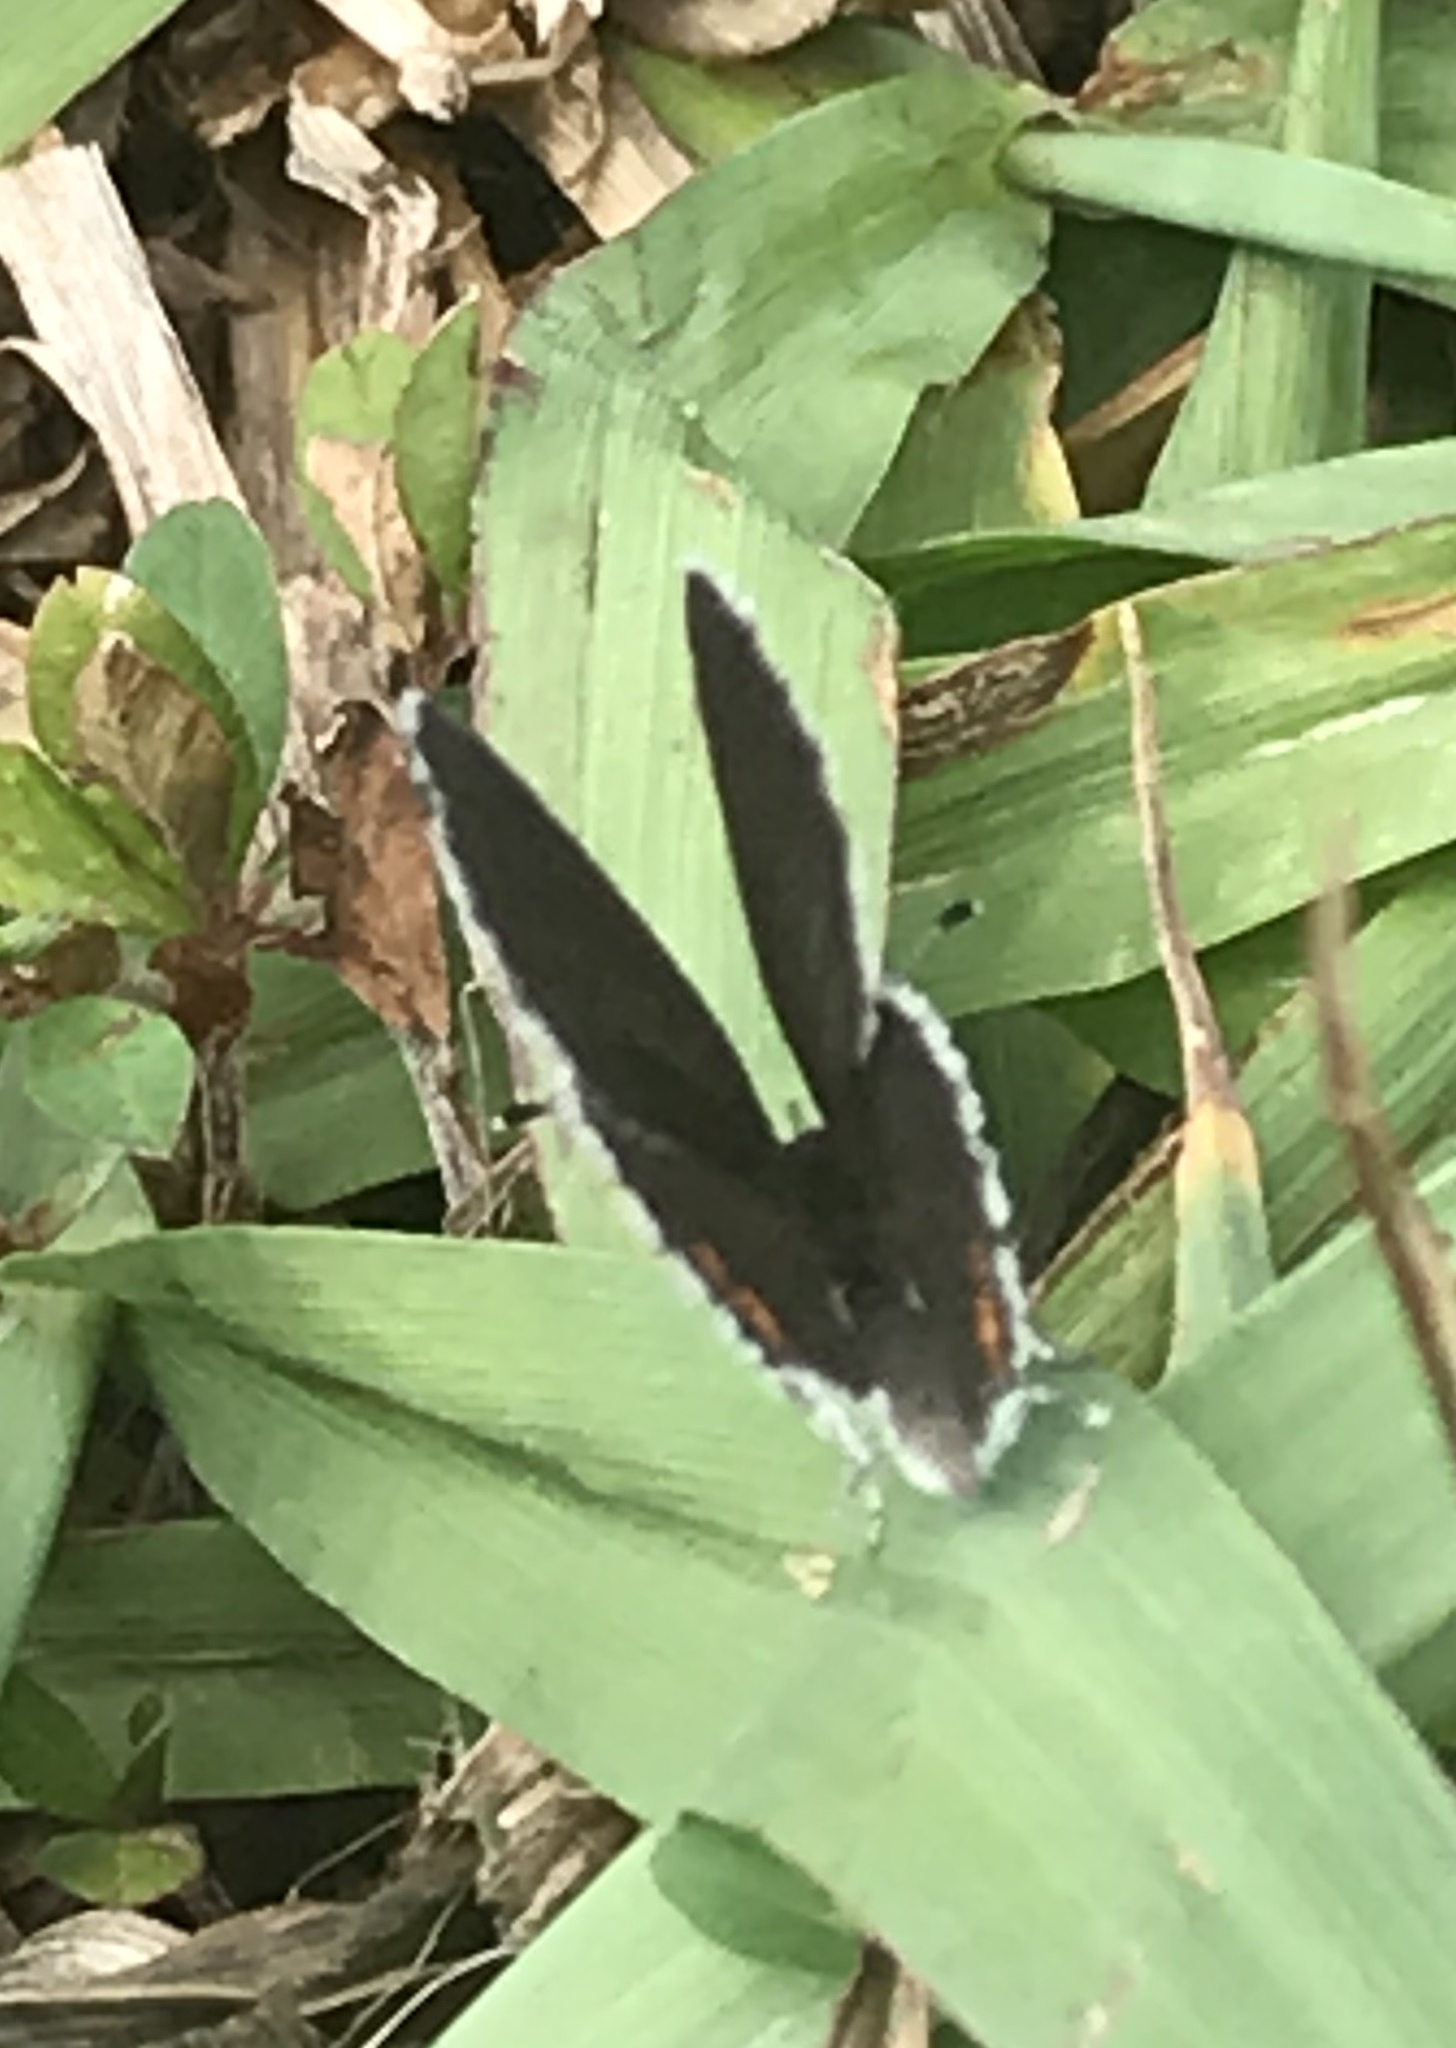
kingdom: Animalia
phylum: Arthropoda
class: Insecta
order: Lepidoptera
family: Lycaenidae
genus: Elkalyce
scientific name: Elkalyce comyntas
